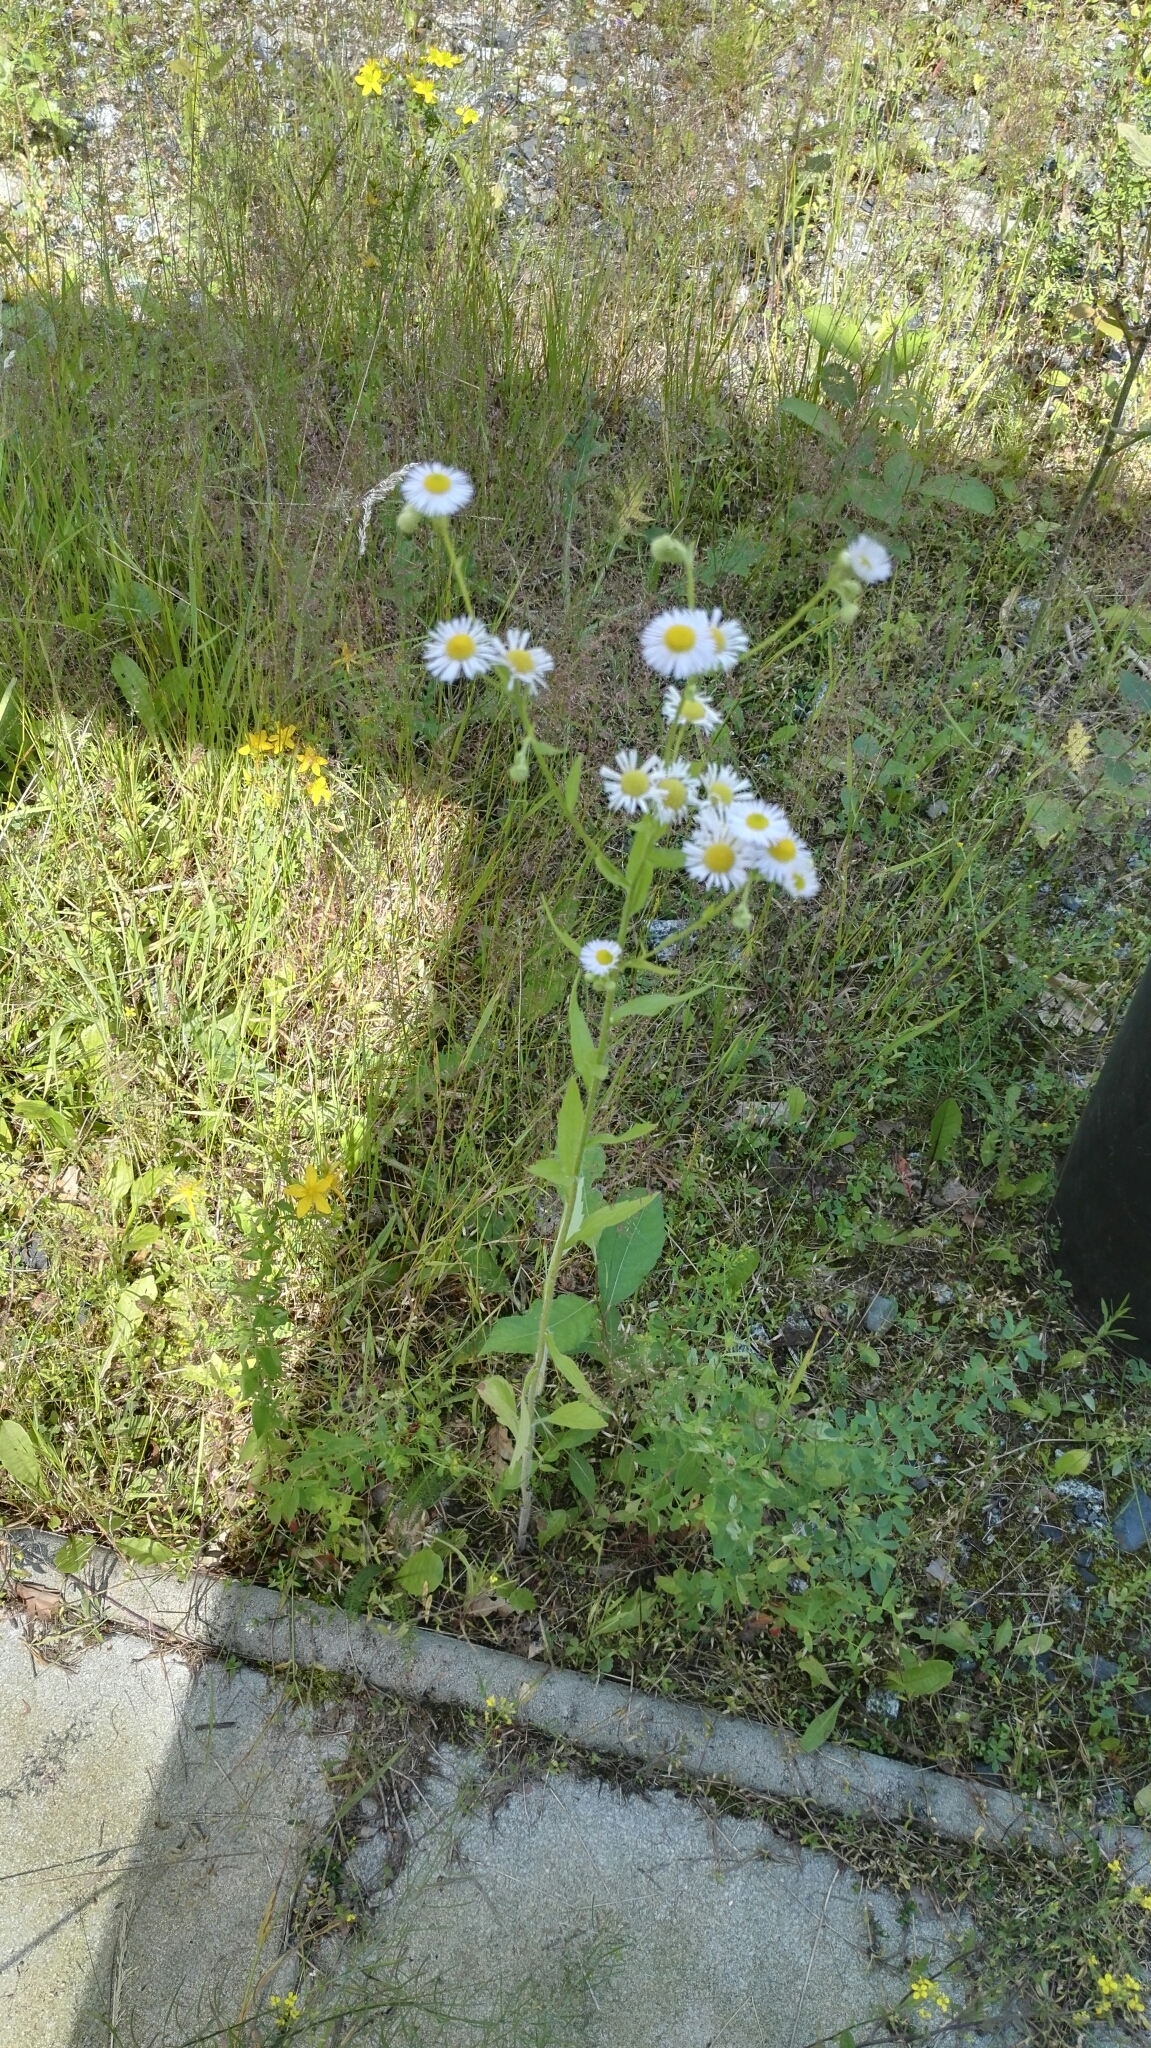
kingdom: Plantae
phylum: Tracheophyta
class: Magnoliopsida
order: Asterales
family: Asteraceae
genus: Erigeron
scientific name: Erigeron annuus
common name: Tall fleabane
